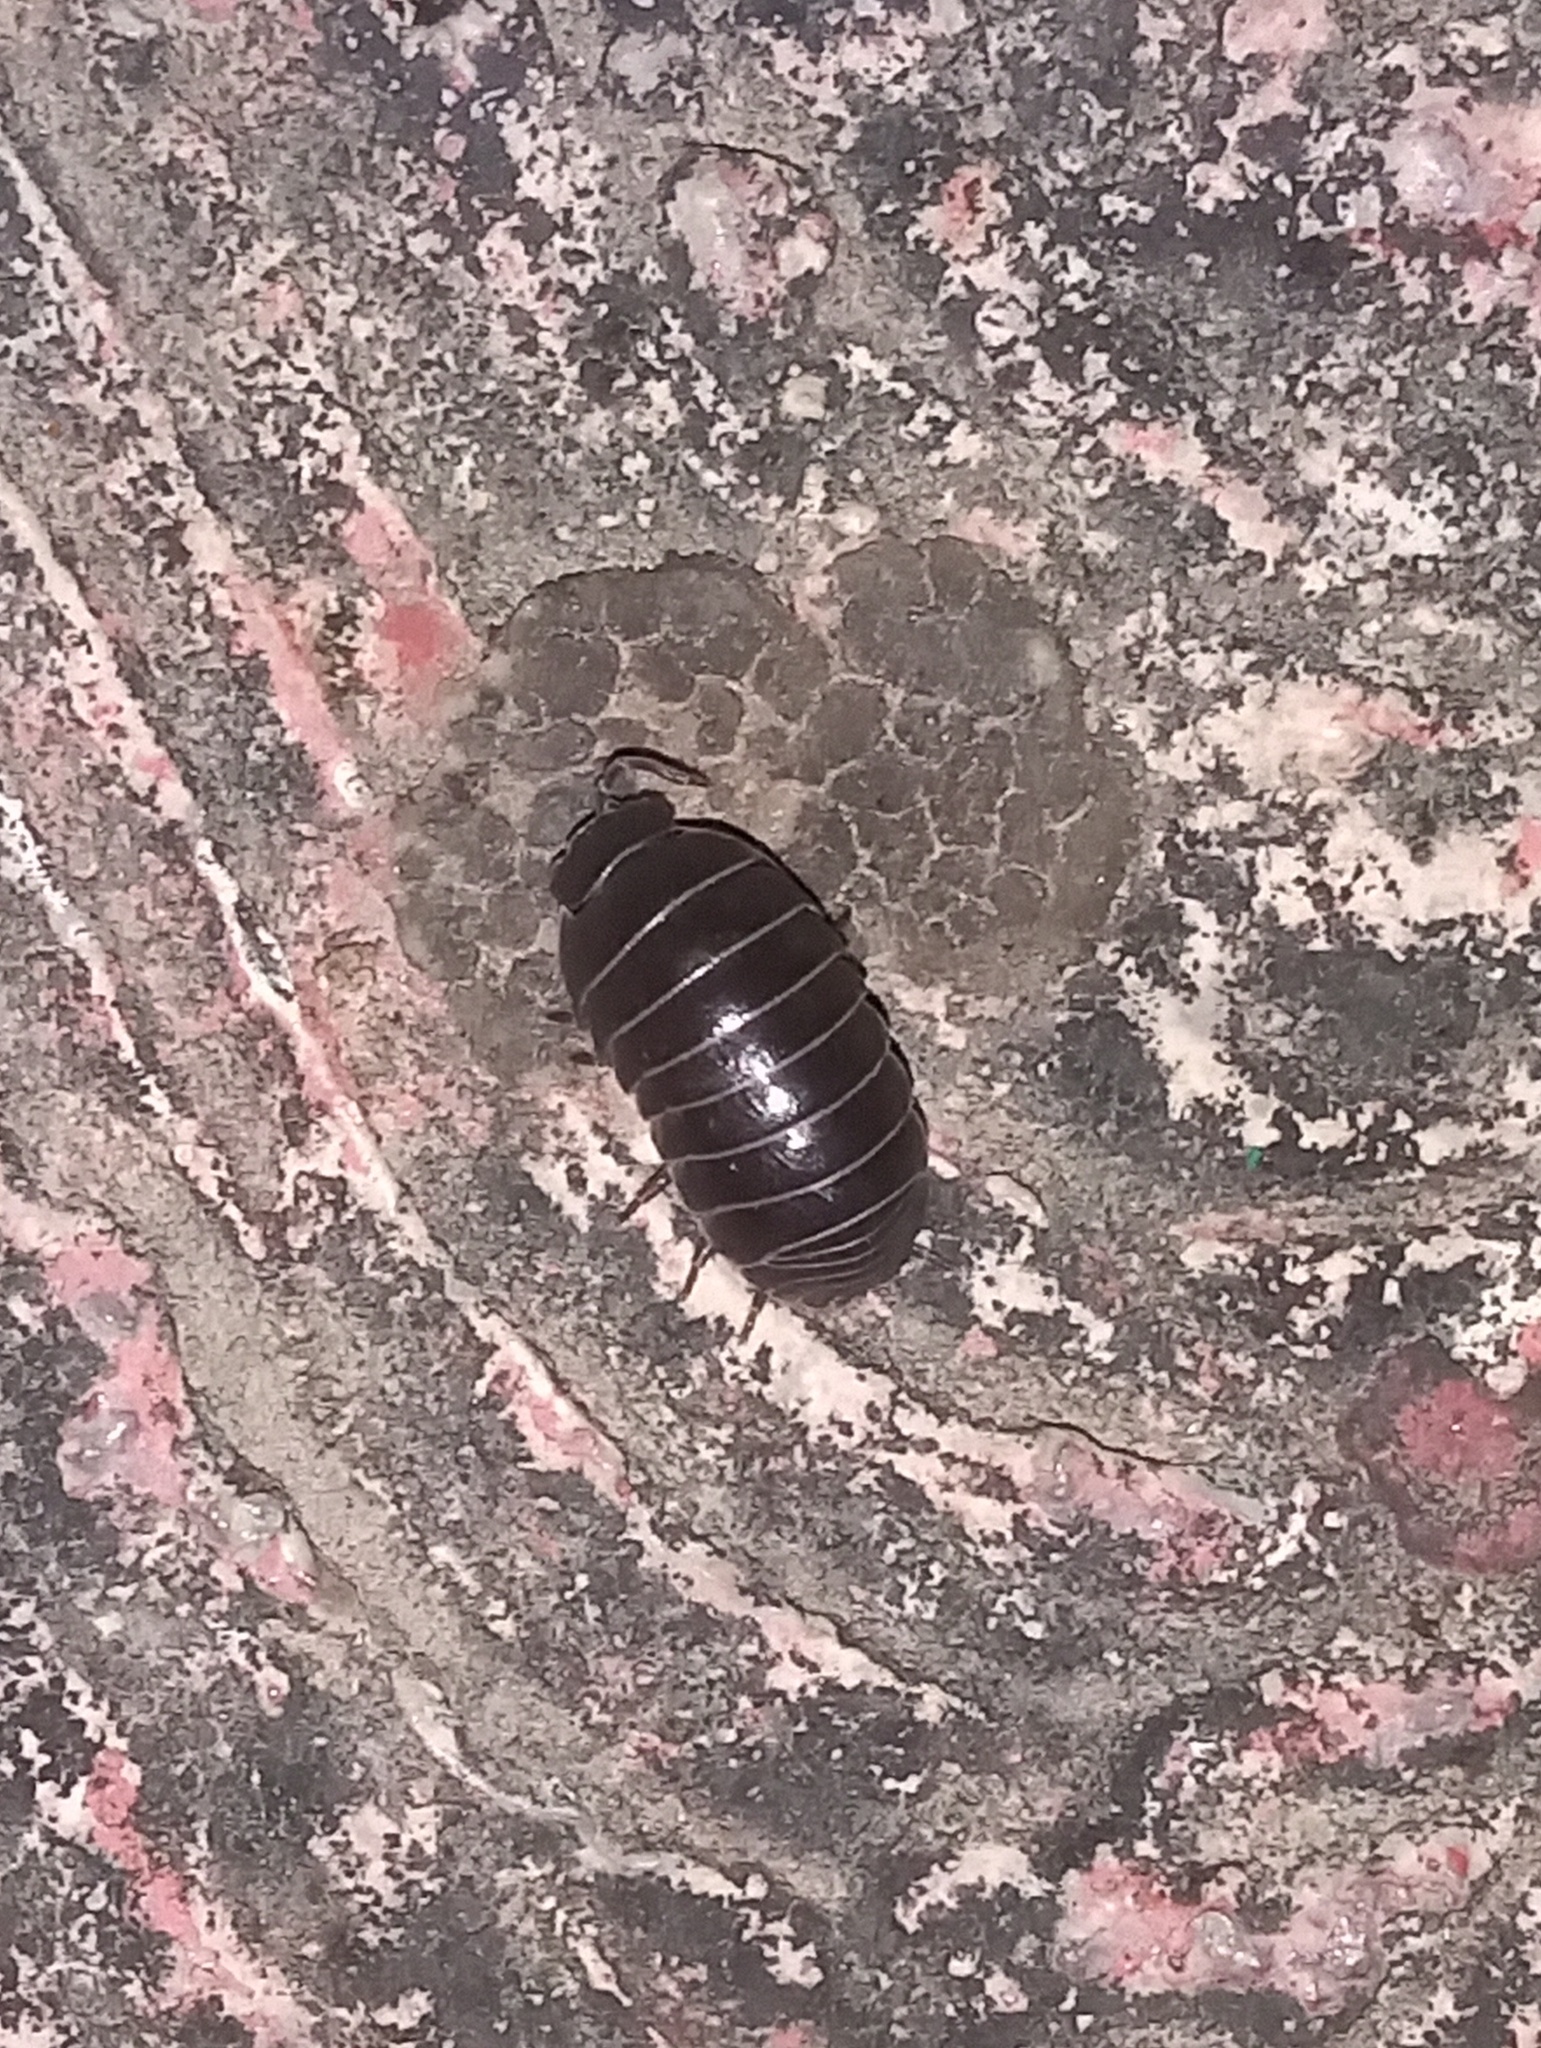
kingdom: Animalia
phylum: Arthropoda
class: Malacostraca
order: Isopoda
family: Armadillidiidae
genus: Armadillidium
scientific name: Armadillidium vulgare
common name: Common pill woodlouse
